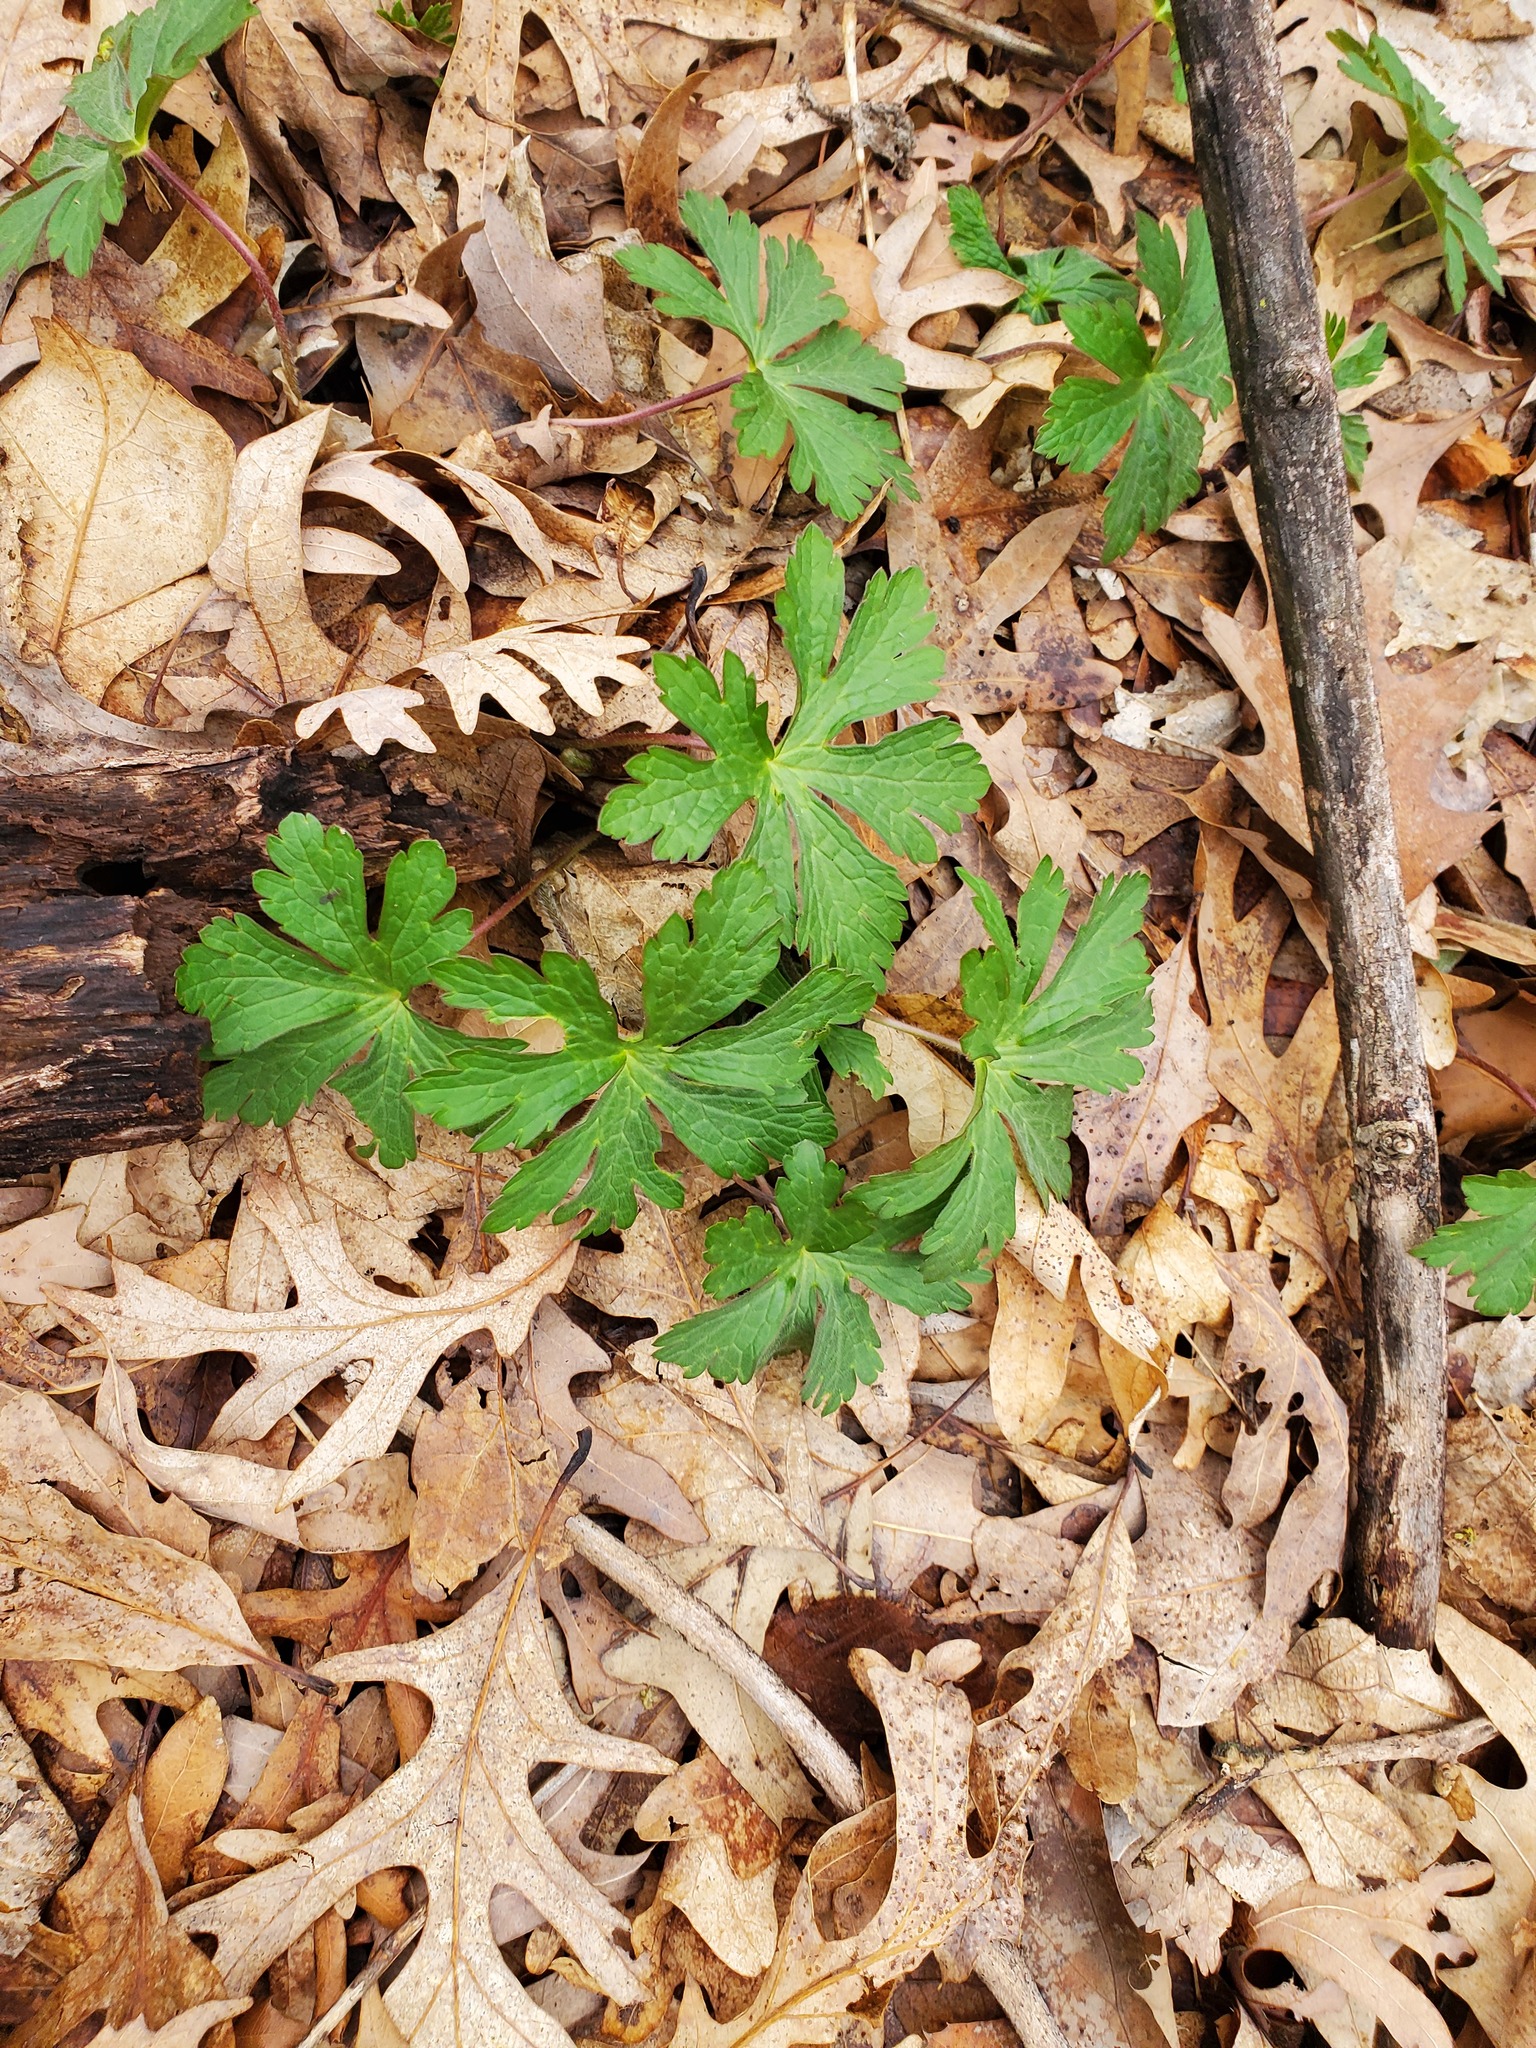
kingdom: Plantae
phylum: Tracheophyta
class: Magnoliopsida
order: Geraniales
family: Geraniaceae
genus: Geranium
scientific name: Geranium maculatum
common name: Spotted geranium
